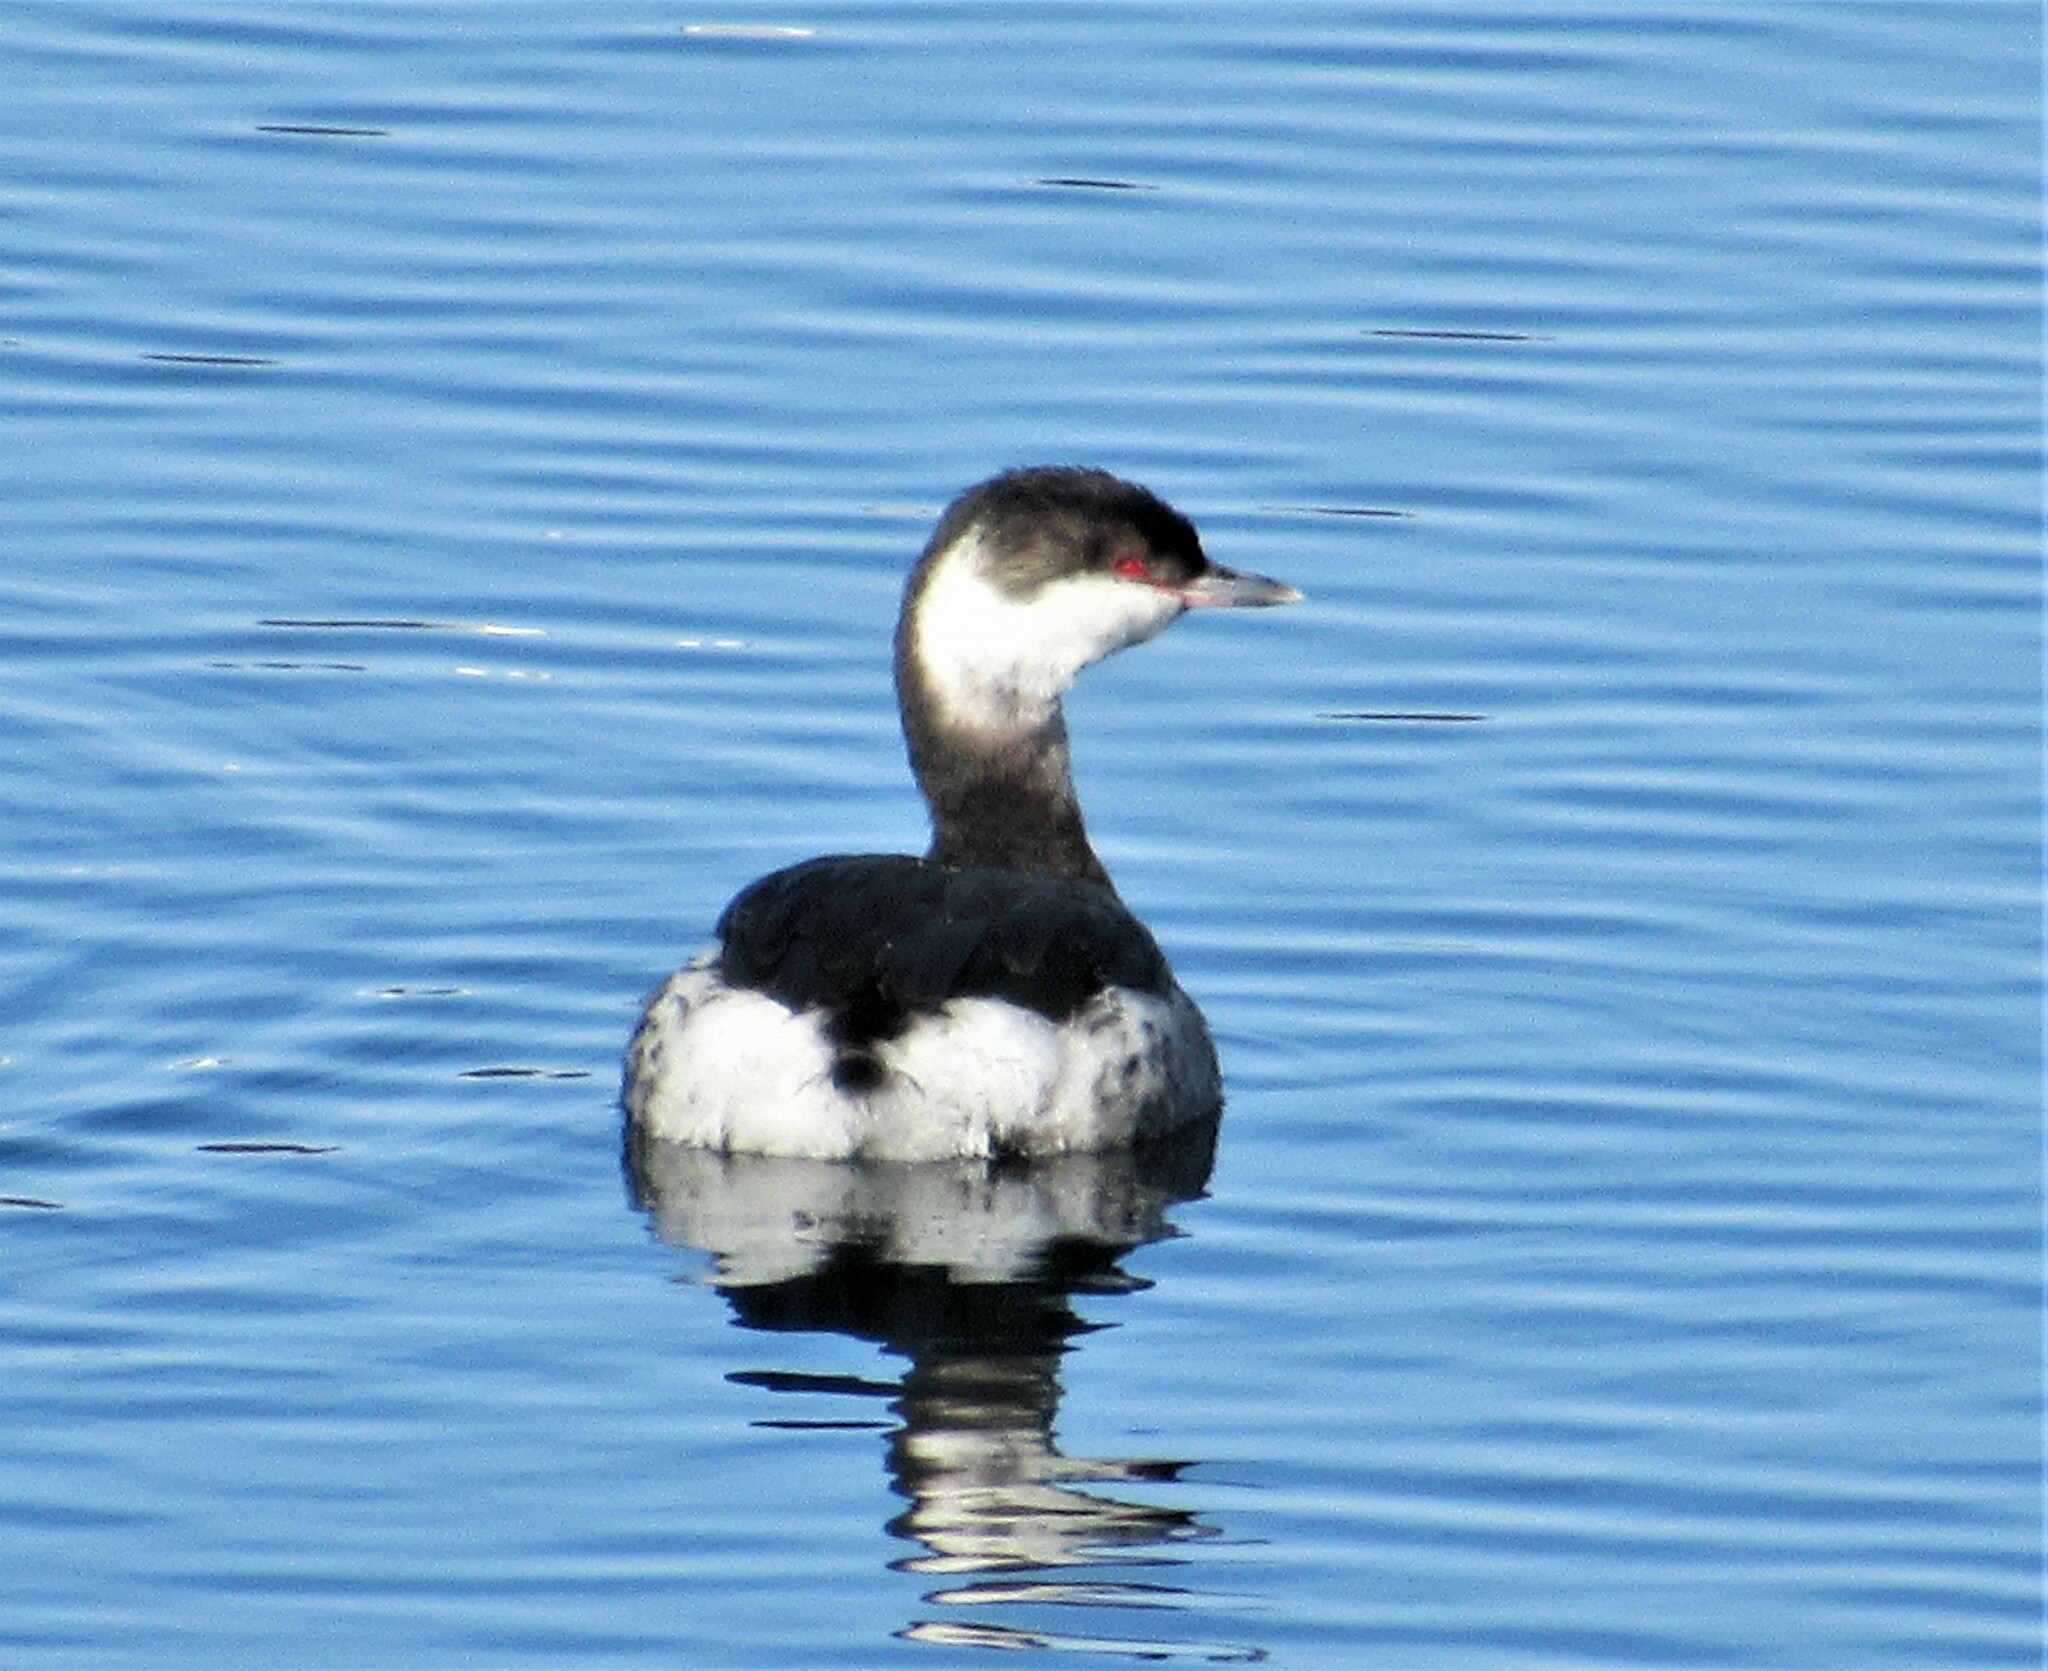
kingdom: Animalia
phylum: Chordata
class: Aves
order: Podicipediformes
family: Podicipedidae
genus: Podiceps
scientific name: Podiceps auritus
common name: Horned grebe
